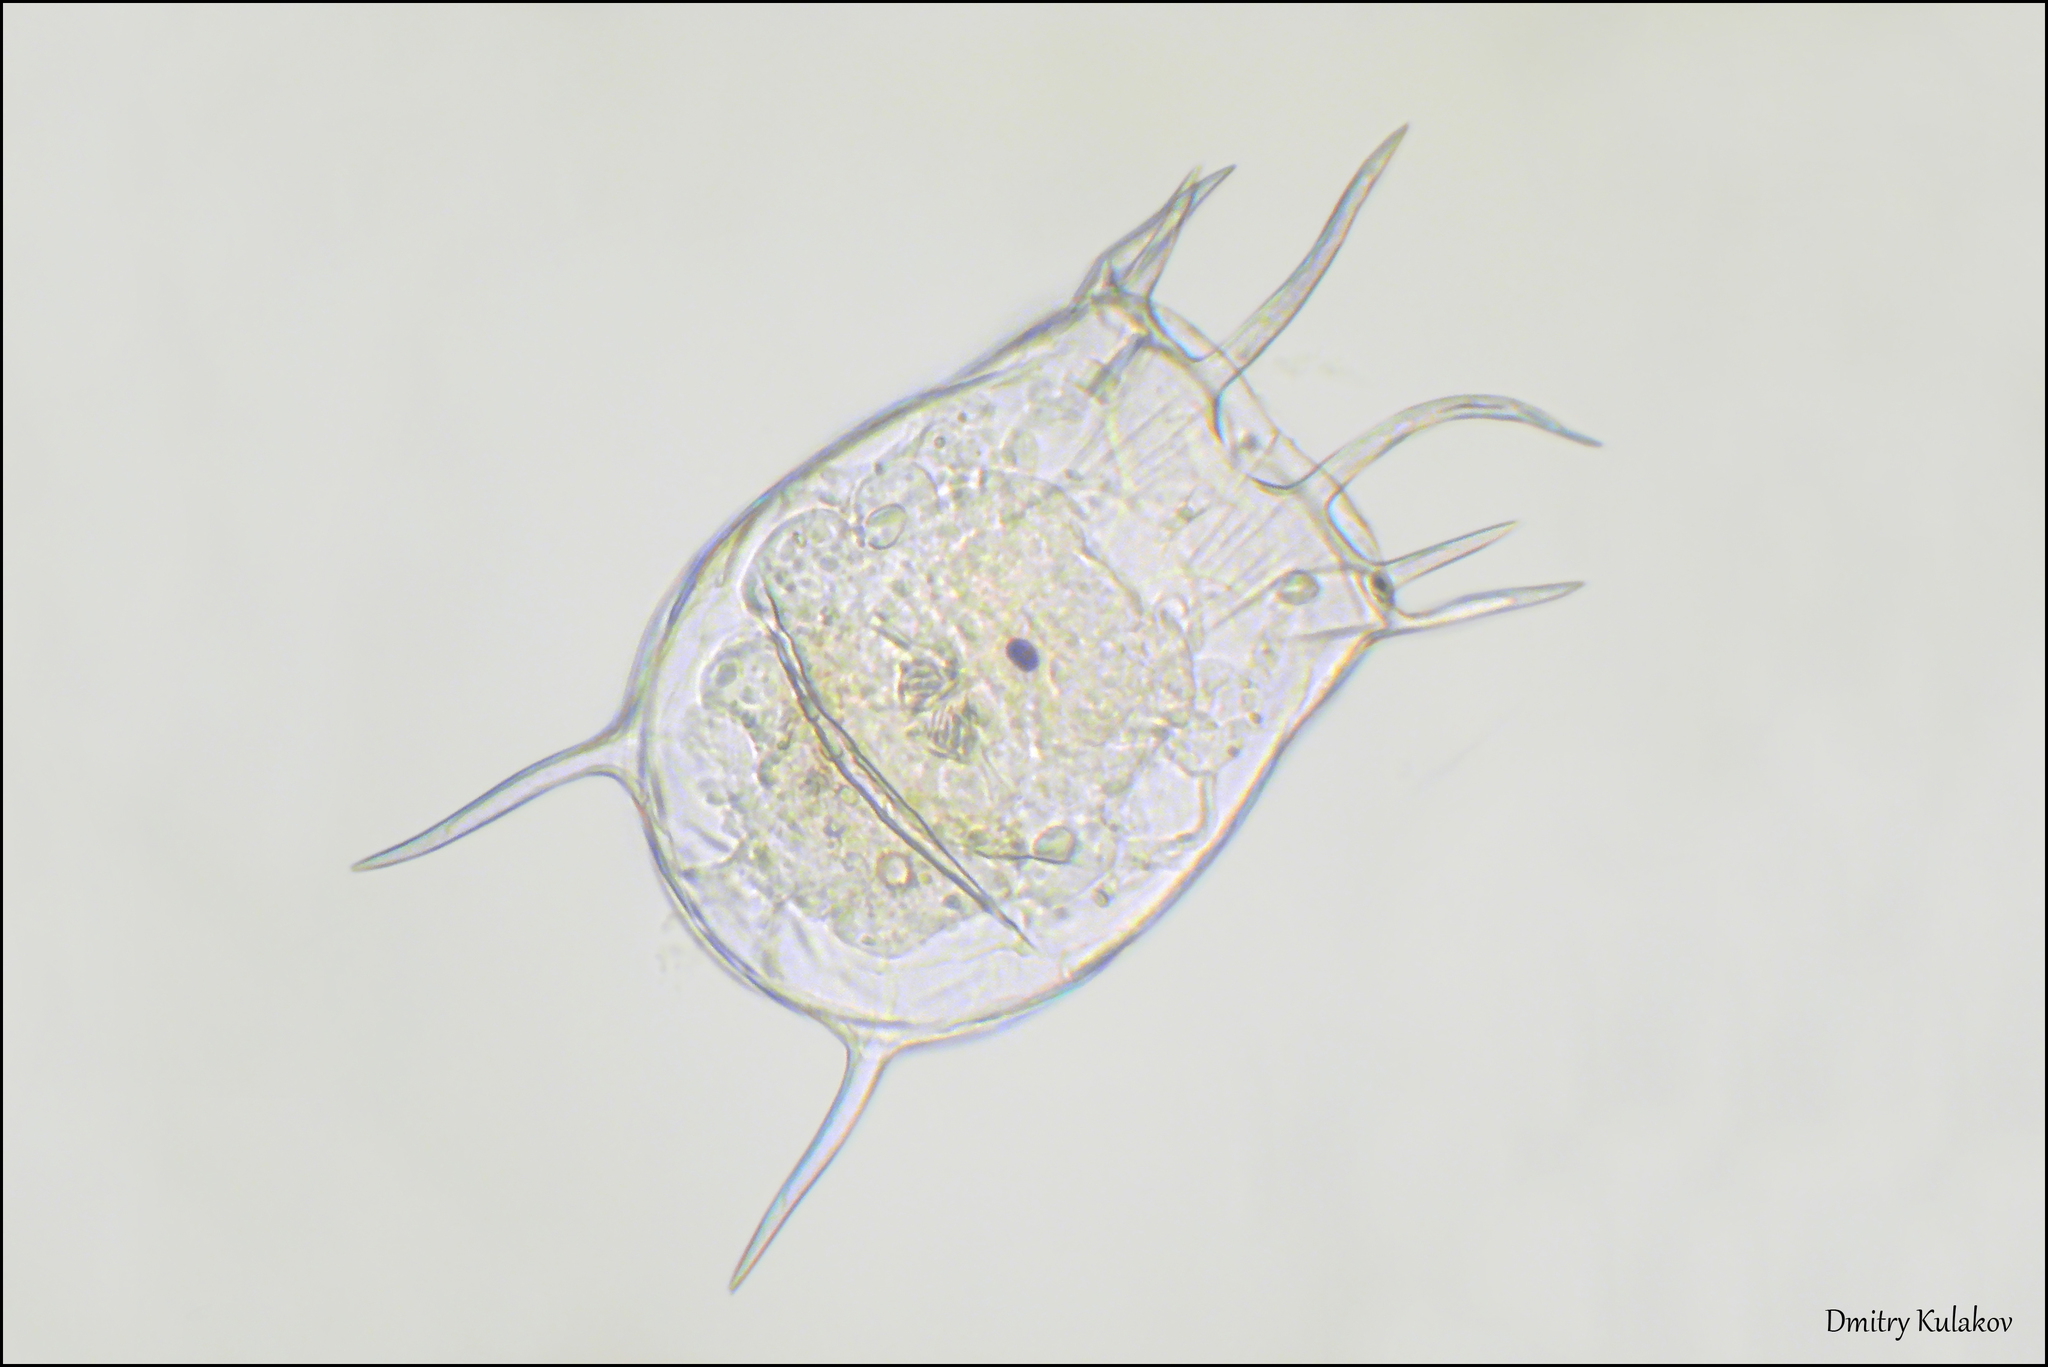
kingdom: Animalia
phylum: Rotifera
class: Eurotatoria
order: Ploima
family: Brachionidae
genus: Keratella
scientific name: Keratella quadrata
